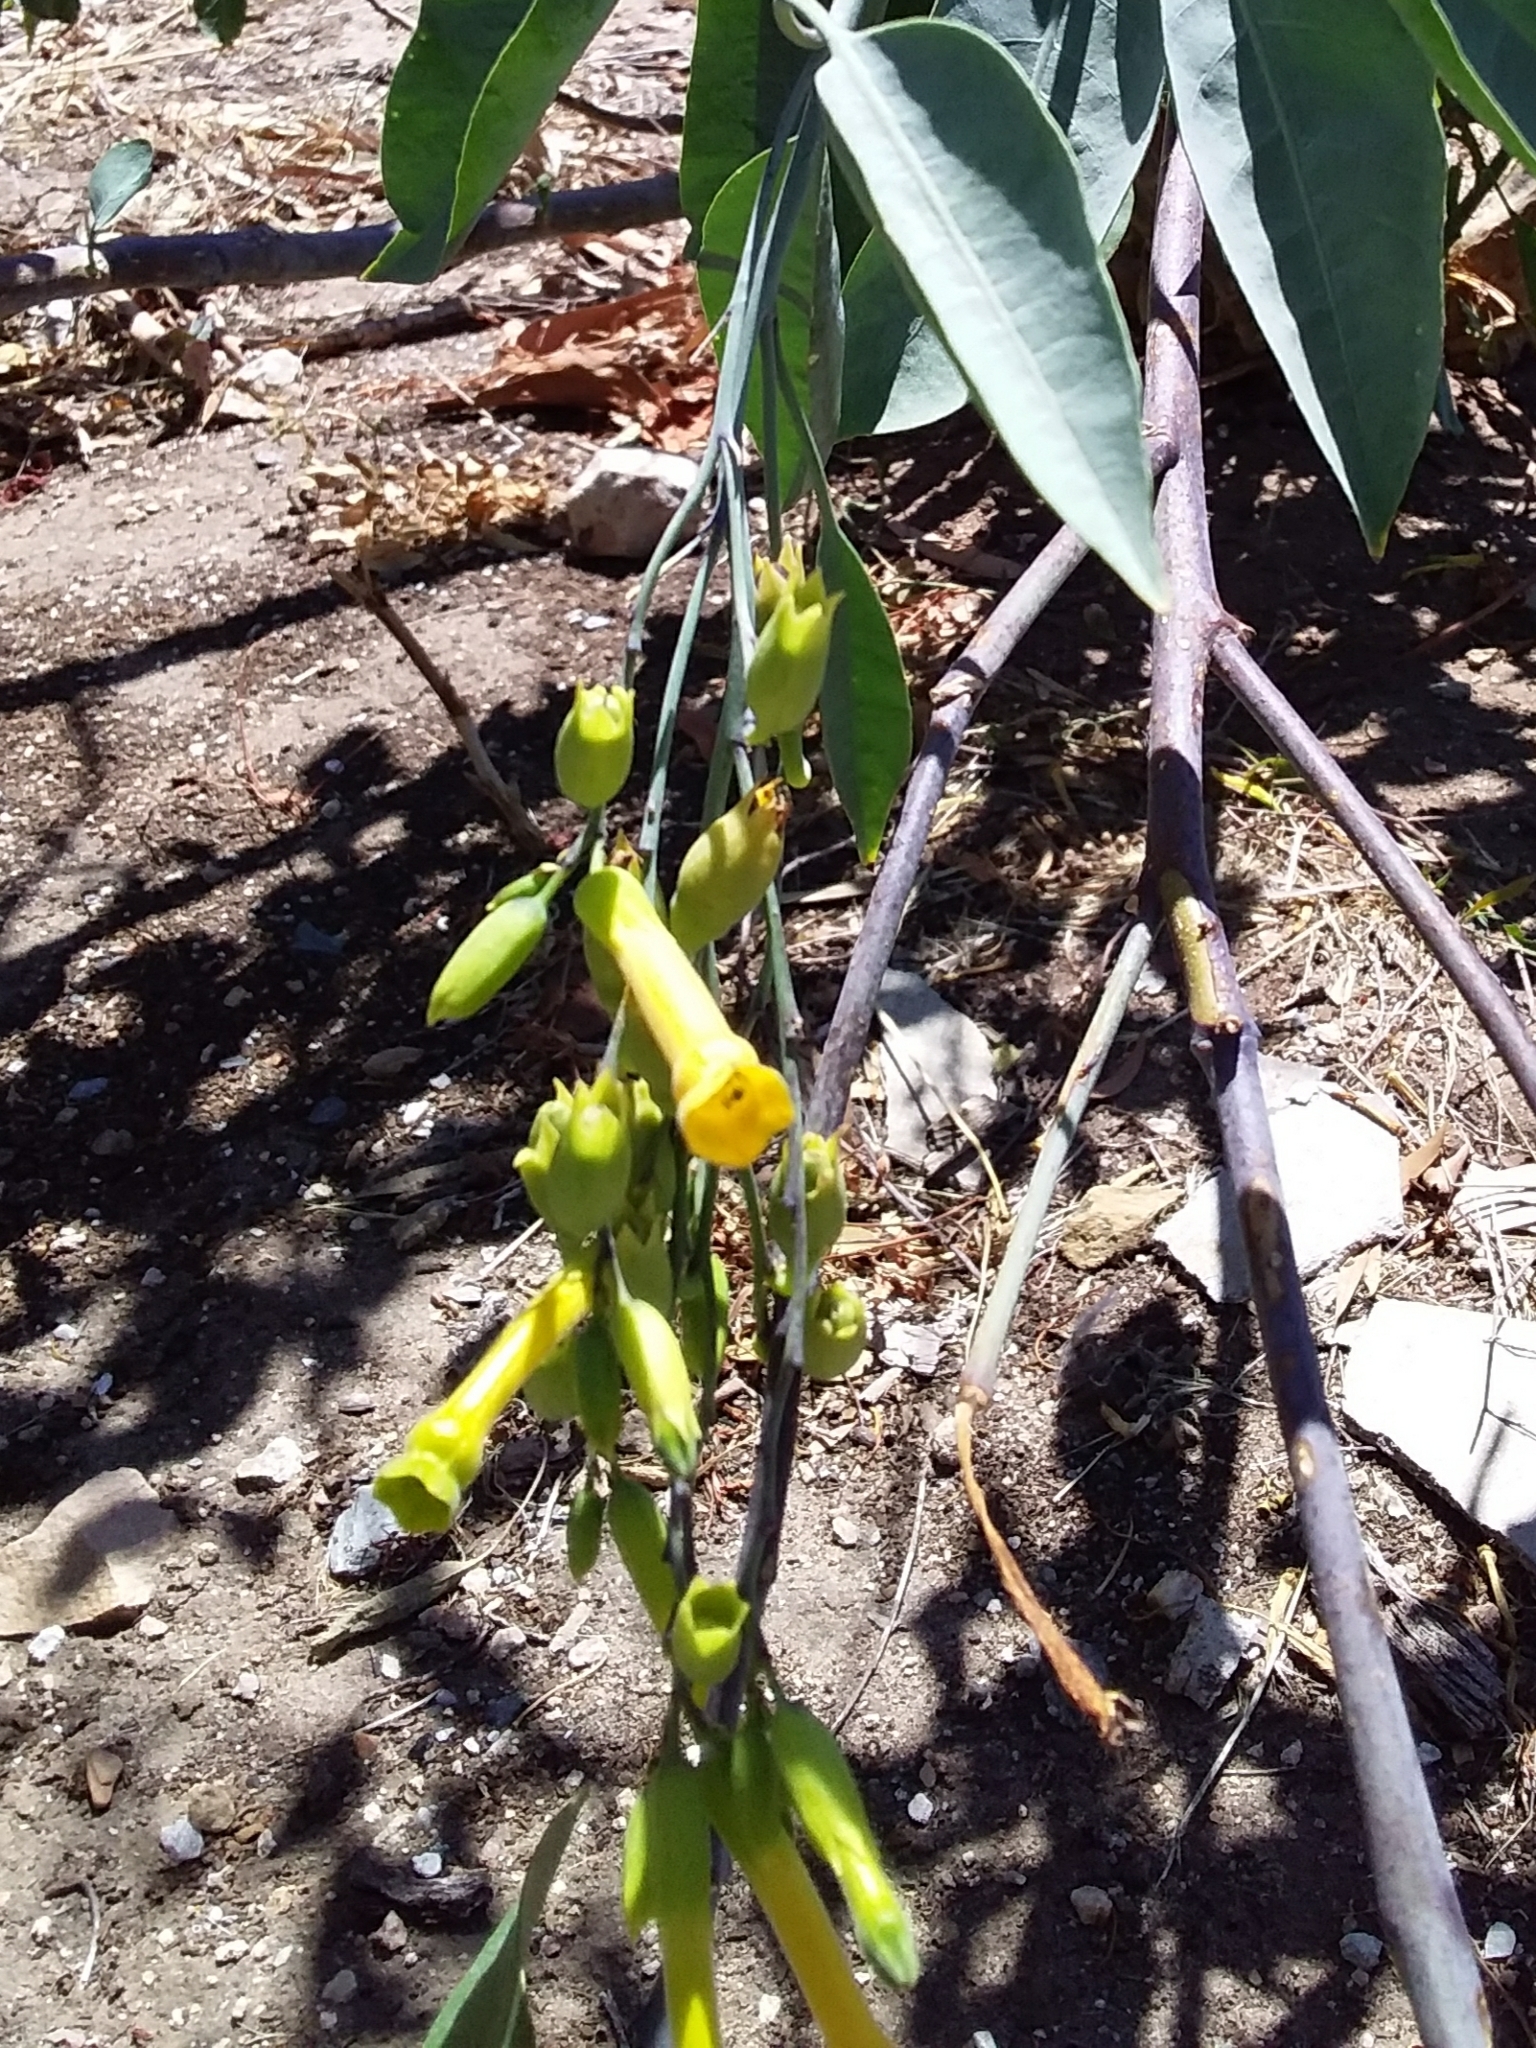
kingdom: Plantae
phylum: Tracheophyta
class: Magnoliopsida
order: Solanales
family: Solanaceae
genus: Nicotiana
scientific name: Nicotiana glauca
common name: Tree tobacco
